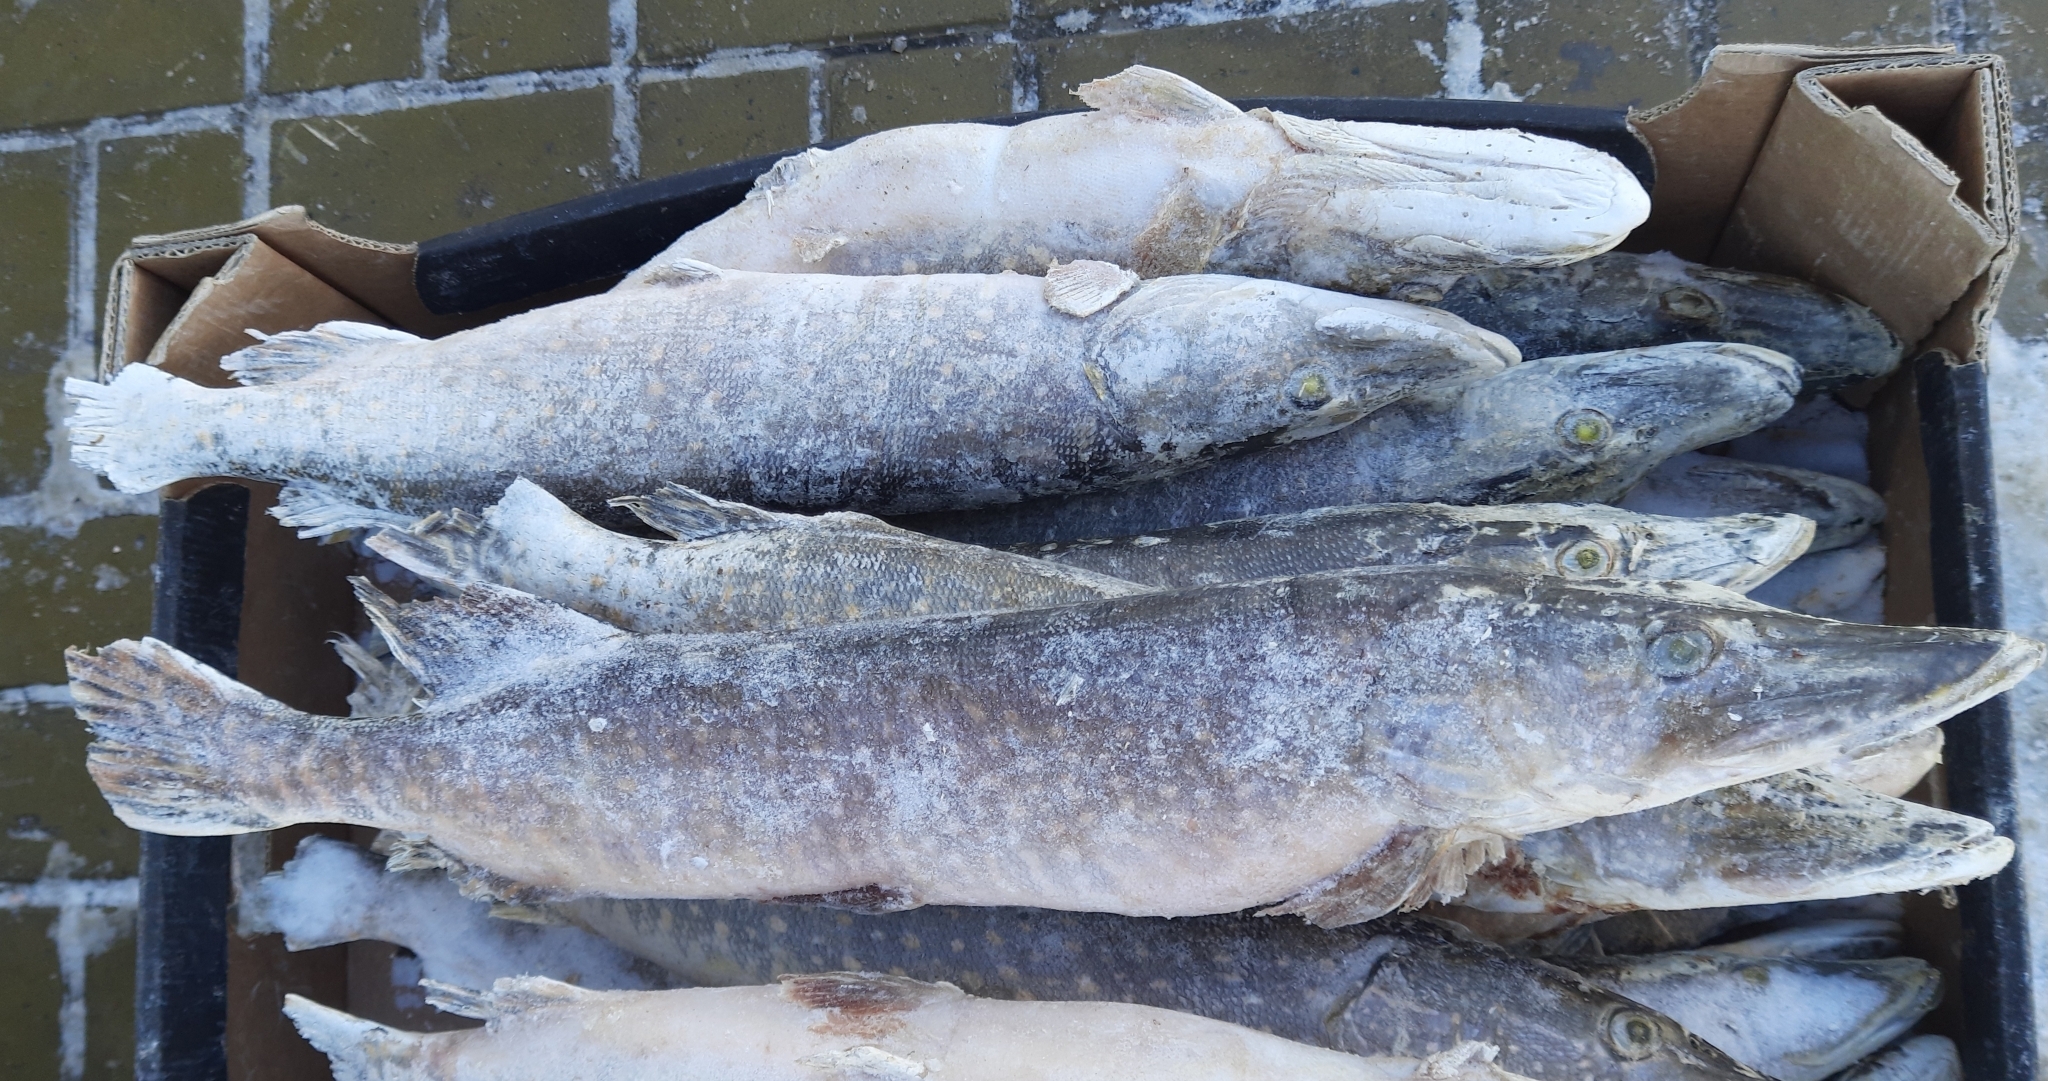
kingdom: Animalia
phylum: Chordata
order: Esociformes
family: Esocidae
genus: Esox
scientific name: Esox lucius
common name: Northern pike
